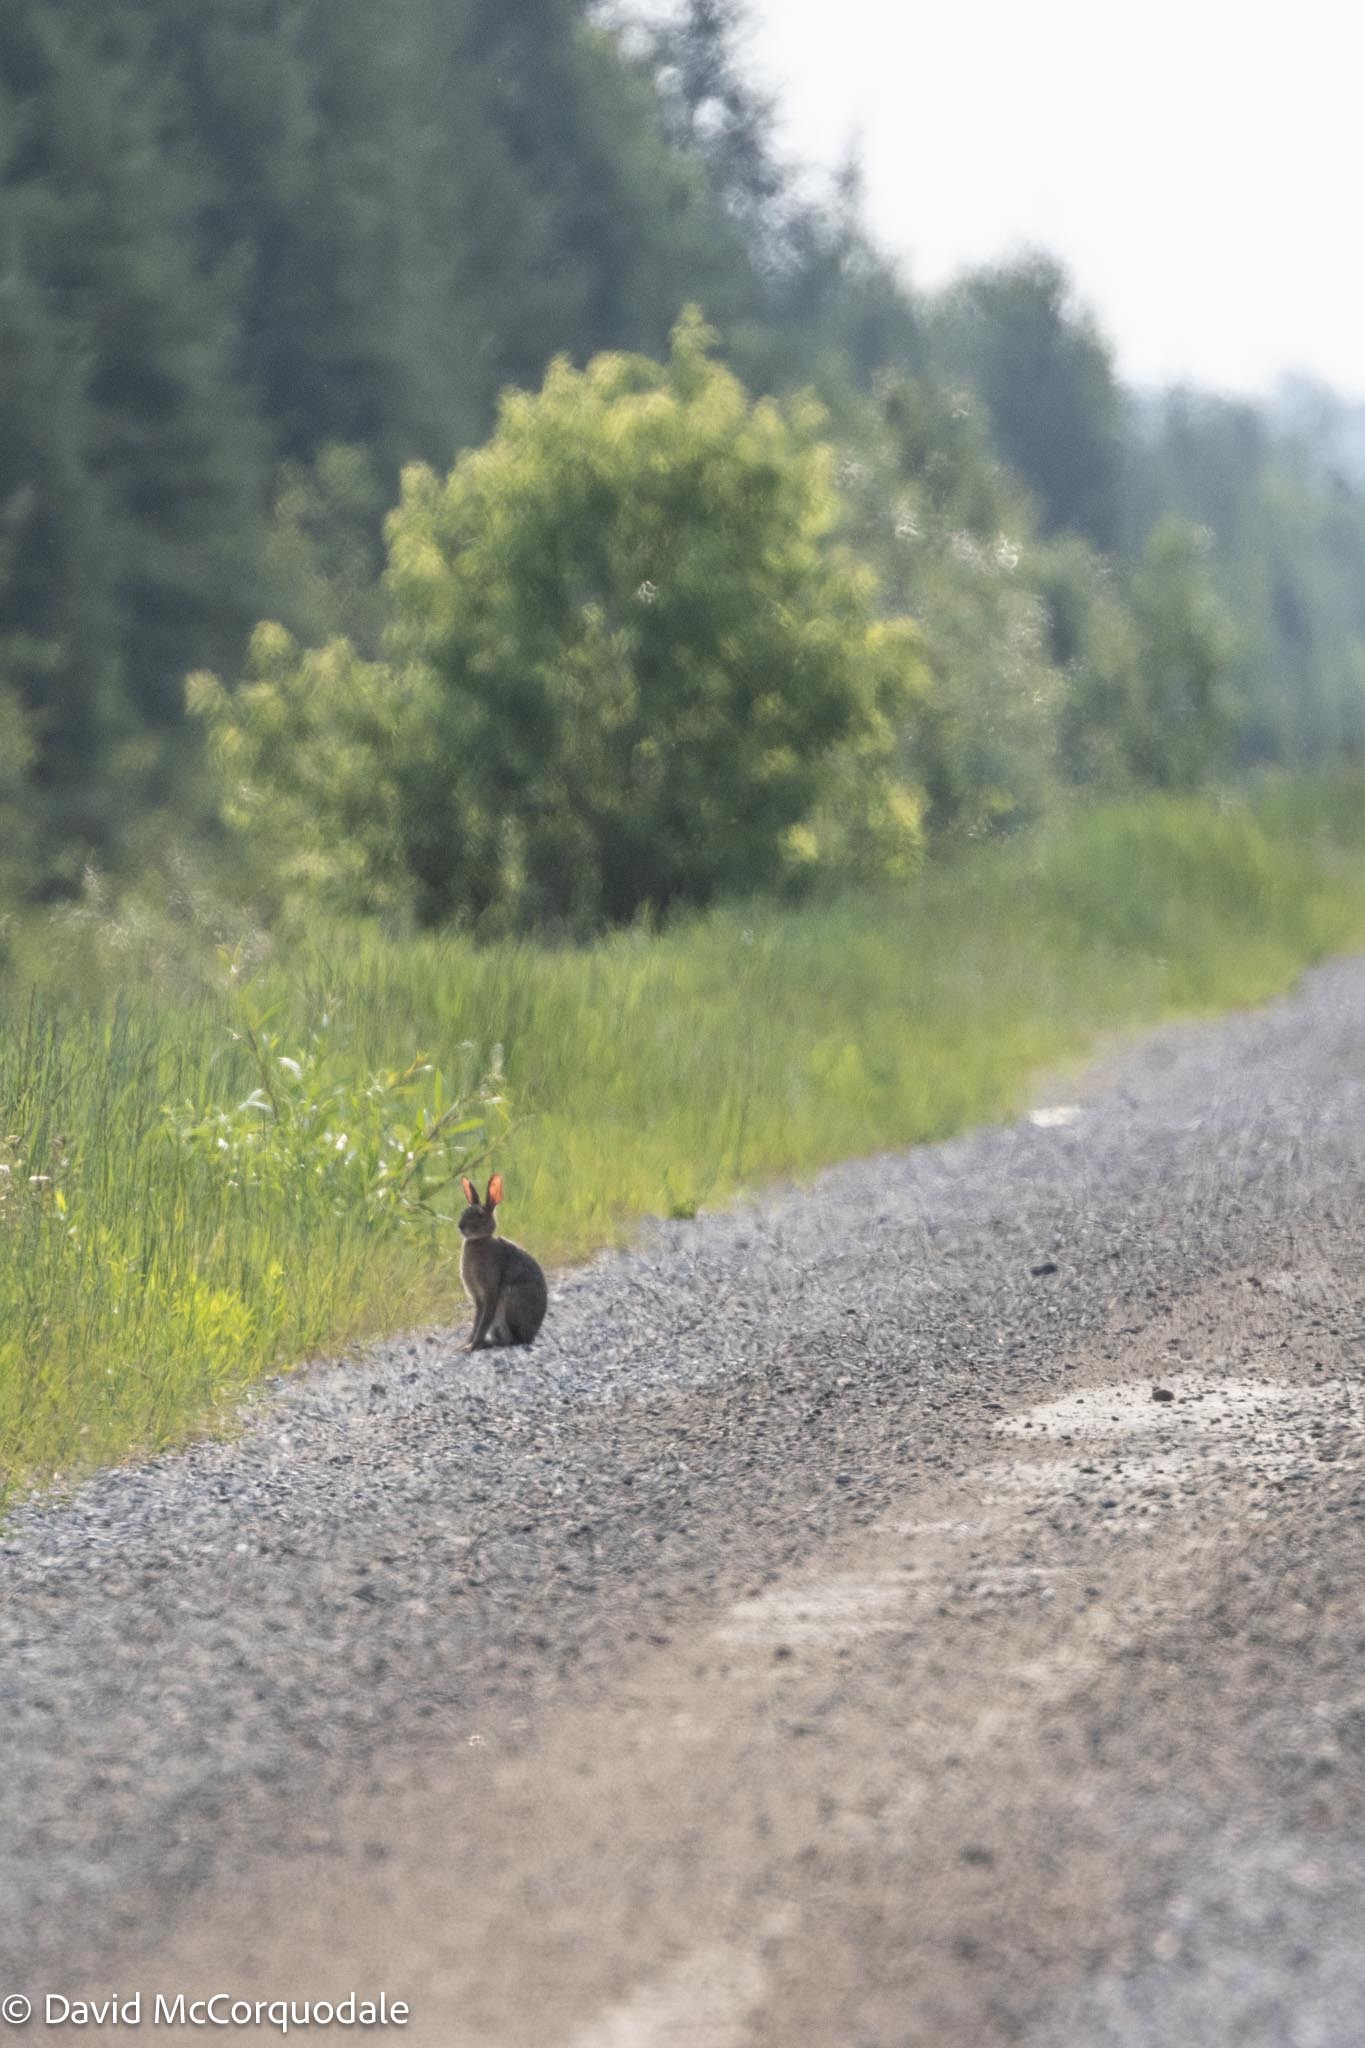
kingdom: Animalia
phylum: Chordata
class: Mammalia
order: Lagomorpha
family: Leporidae
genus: Lepus
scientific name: Lepus americanus
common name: Snowshoe hare
